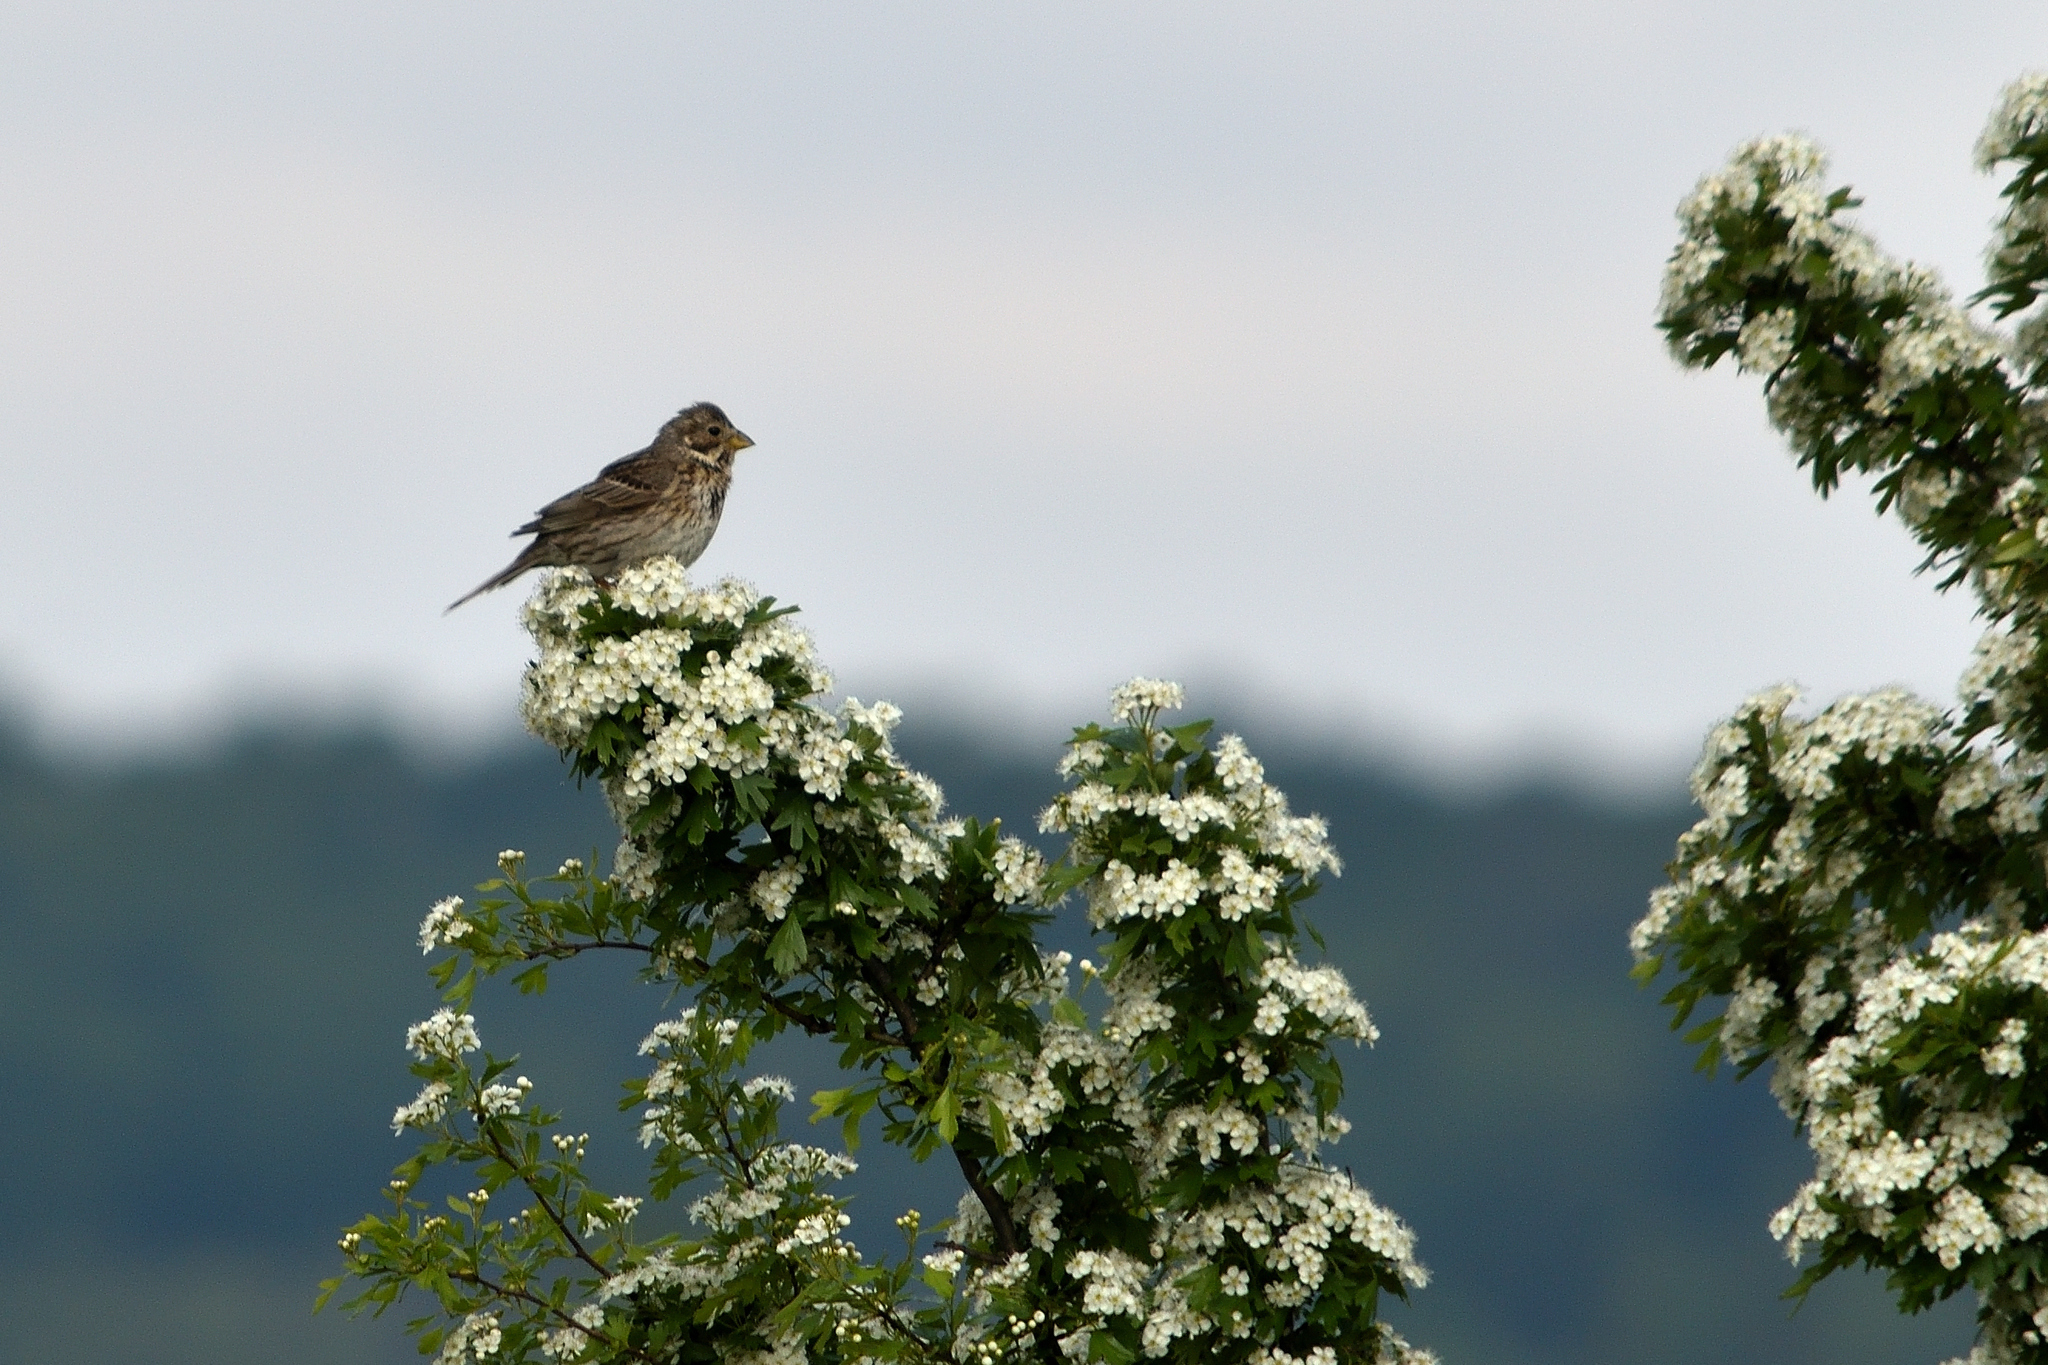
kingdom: Animalia
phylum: Chordata
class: Aves
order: Passeriformes
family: Emberizidae
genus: Emberiza
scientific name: Emberiza calandra
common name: Corn bunting
